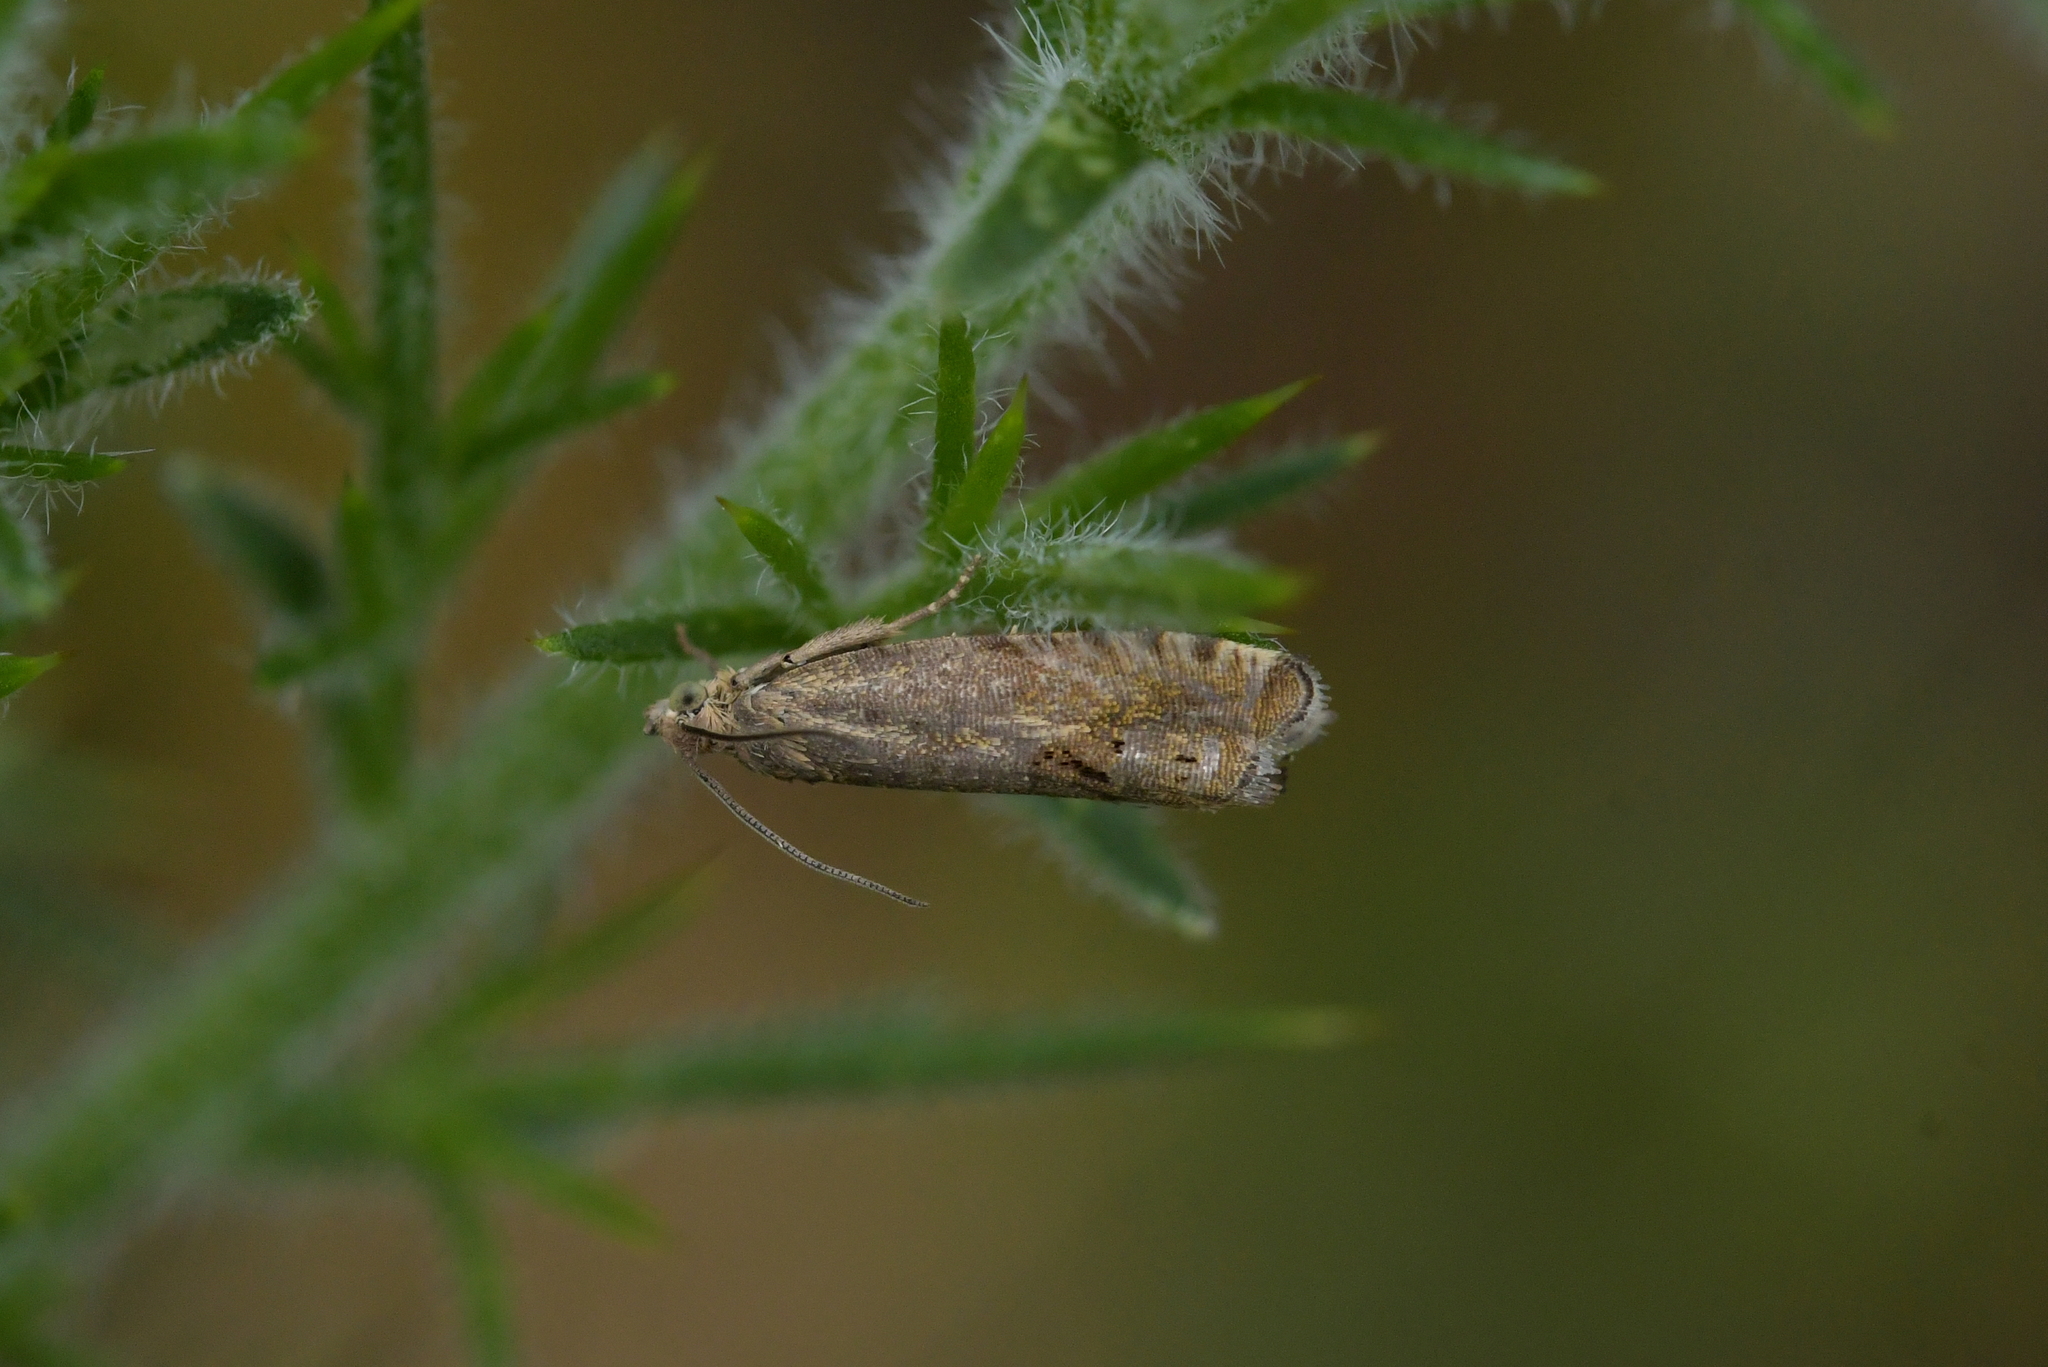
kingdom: Animalia
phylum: Arthropoda
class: Insecta
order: Lepidoptera
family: Tortricidae
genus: Cydia
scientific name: Cydia succedana
